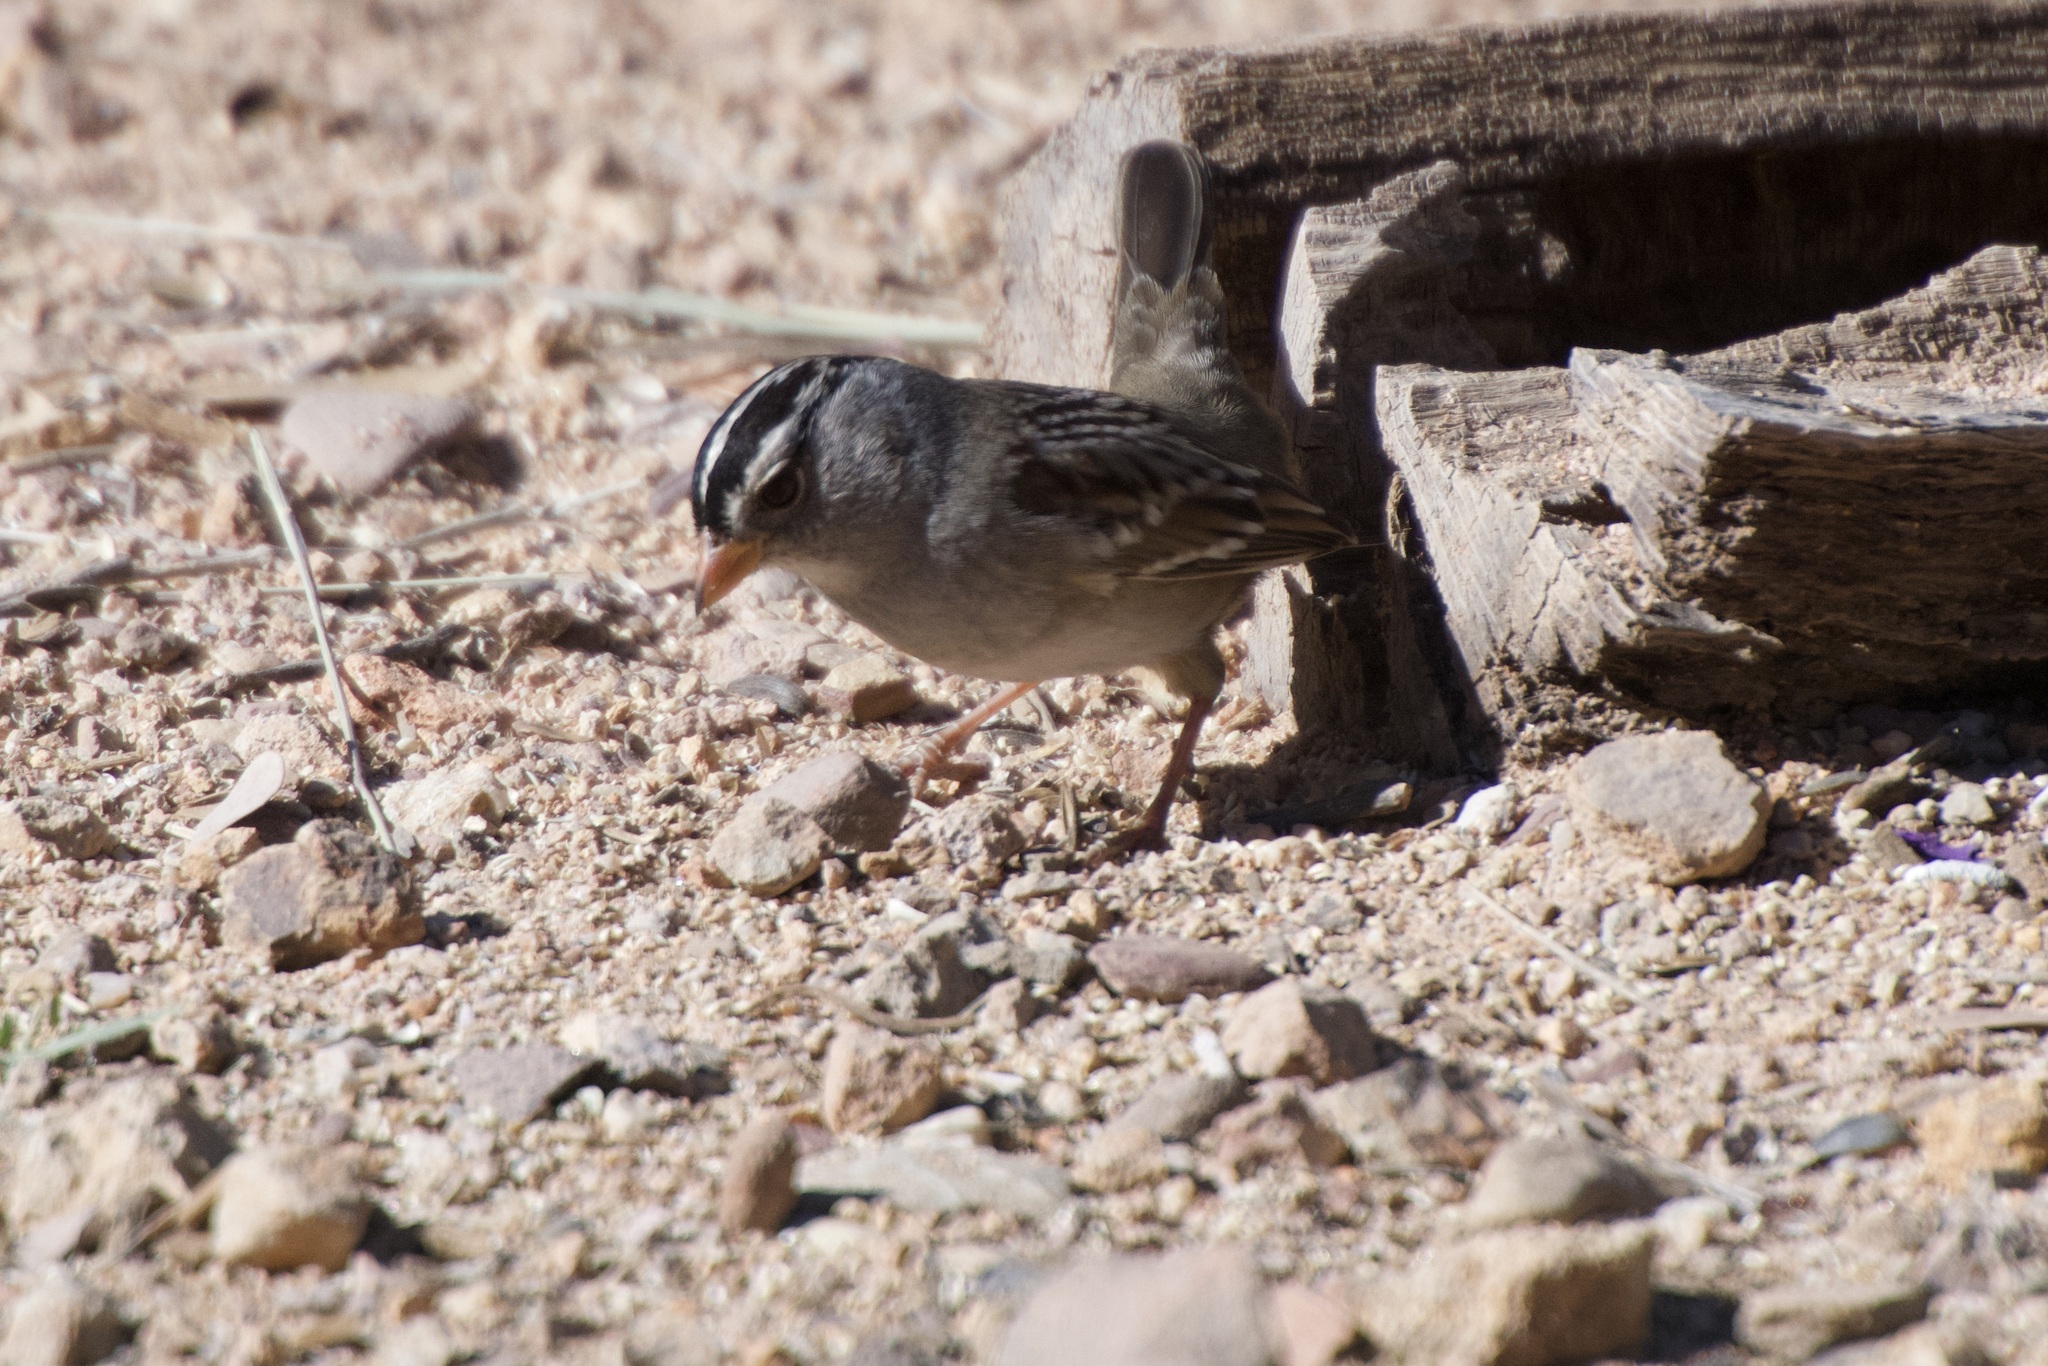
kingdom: Animalia
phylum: Chordata
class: Aves
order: Passeriformes
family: Passerellidae
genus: Zonotrichia
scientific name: Zonotrichia leucophrys
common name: White-crowned sparrow
